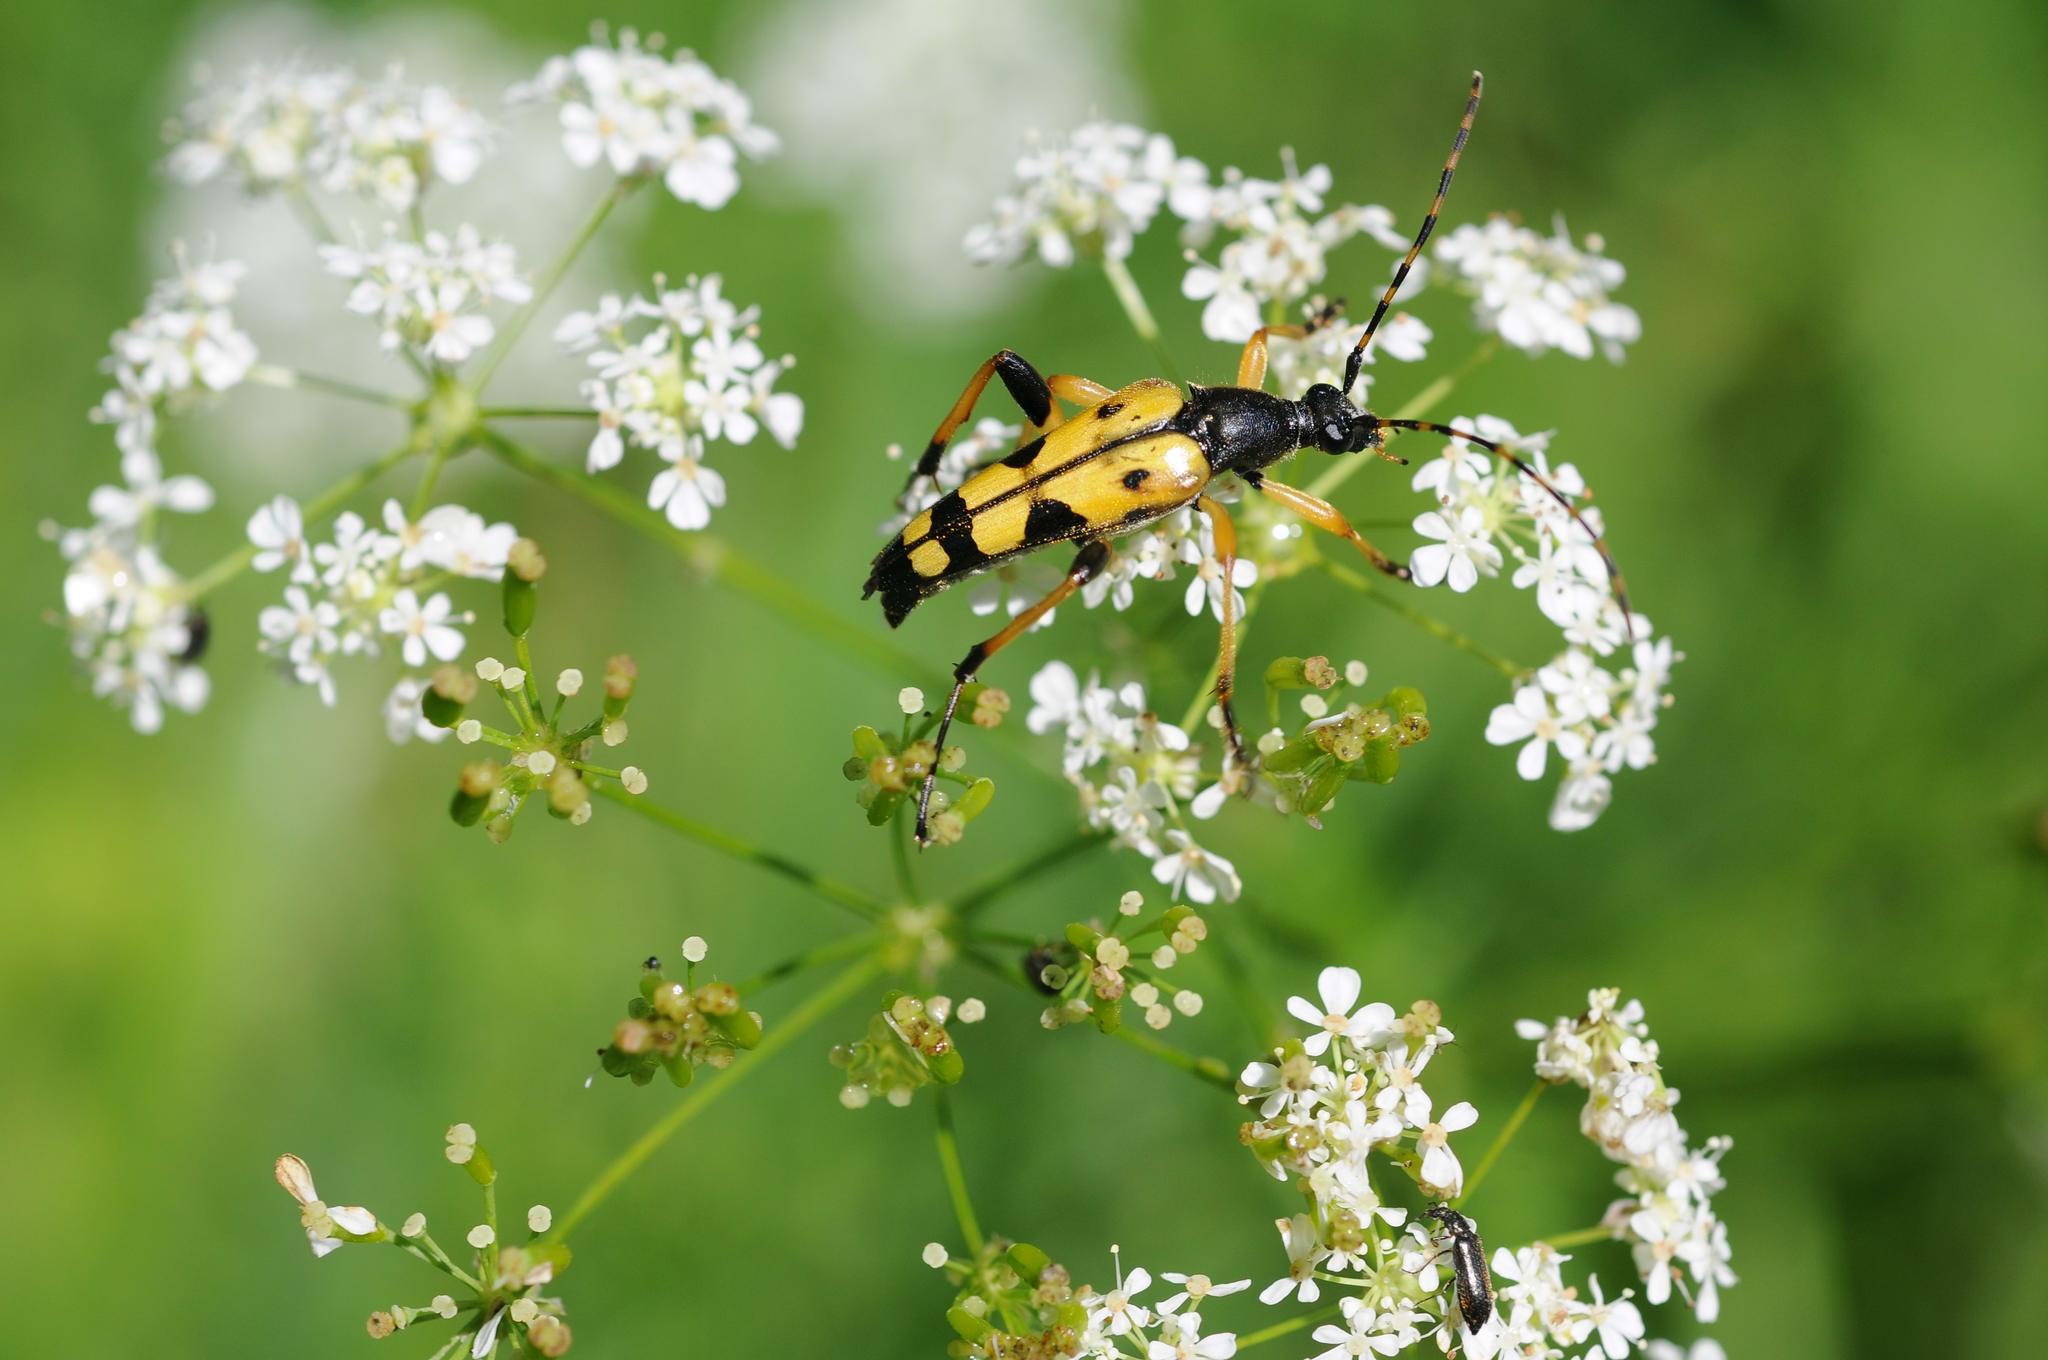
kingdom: Animalia
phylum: Arthropoda
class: Insecta
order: Coleoptera
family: Cerambycidae
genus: Rutpela
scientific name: Rutpela maculata
